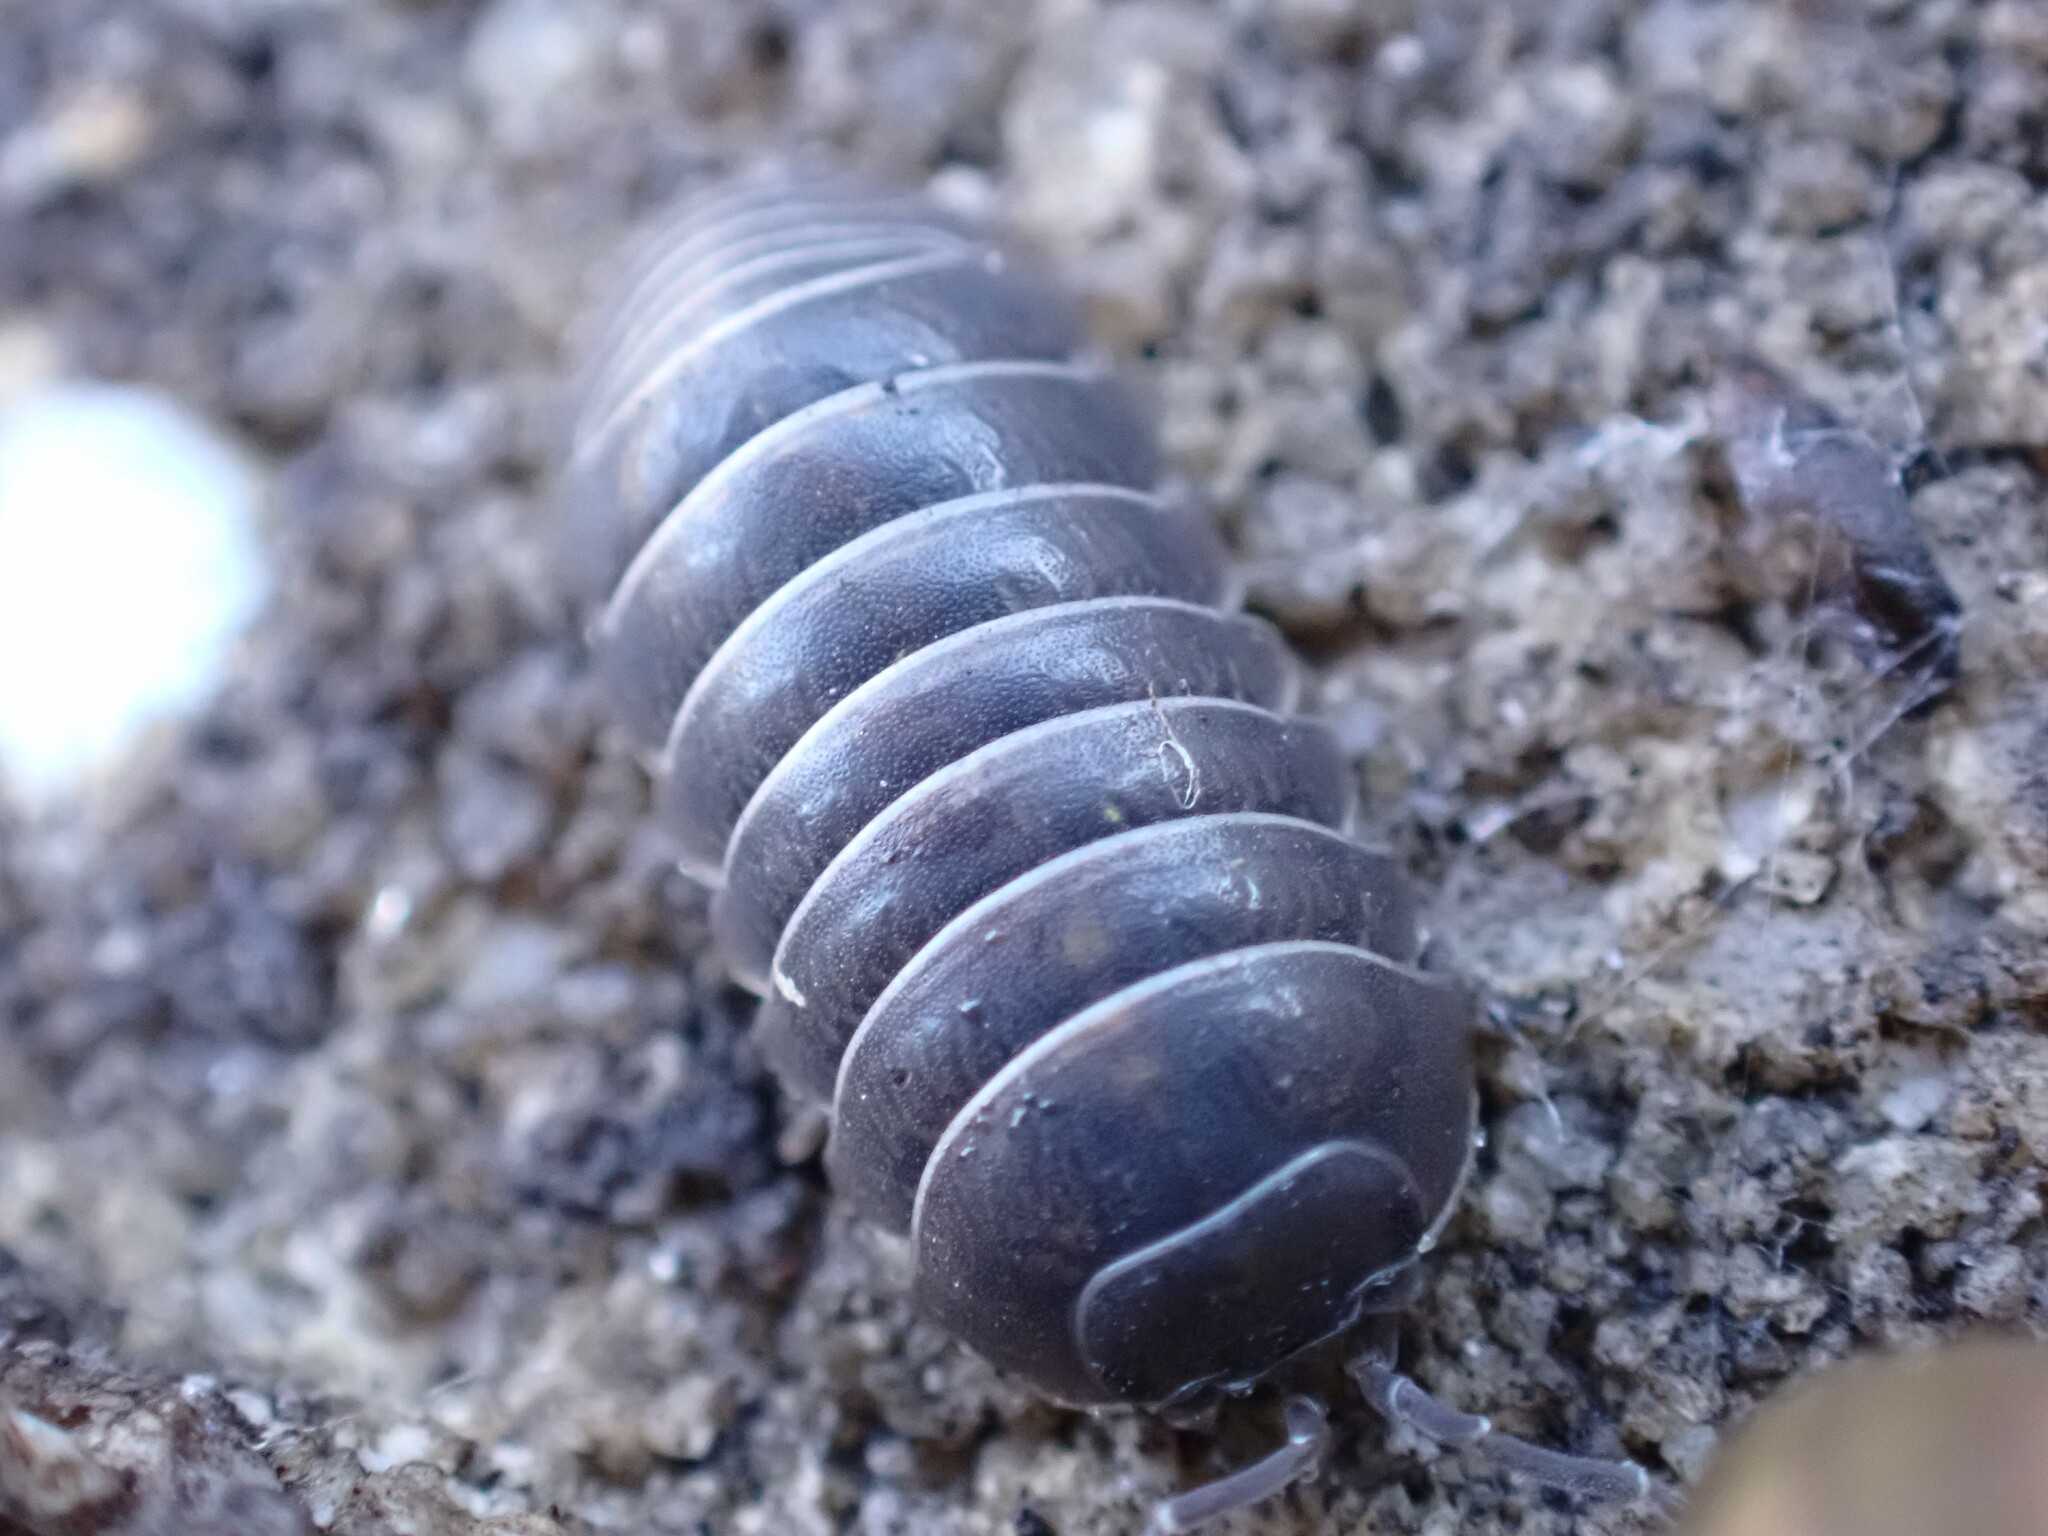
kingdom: Animalia
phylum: Arthropoda
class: Malacostraca
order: Isopoda
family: Armadillidiidae
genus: Armadillidium
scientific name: Armadillidium vulgare
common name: Common pill woodlouse
